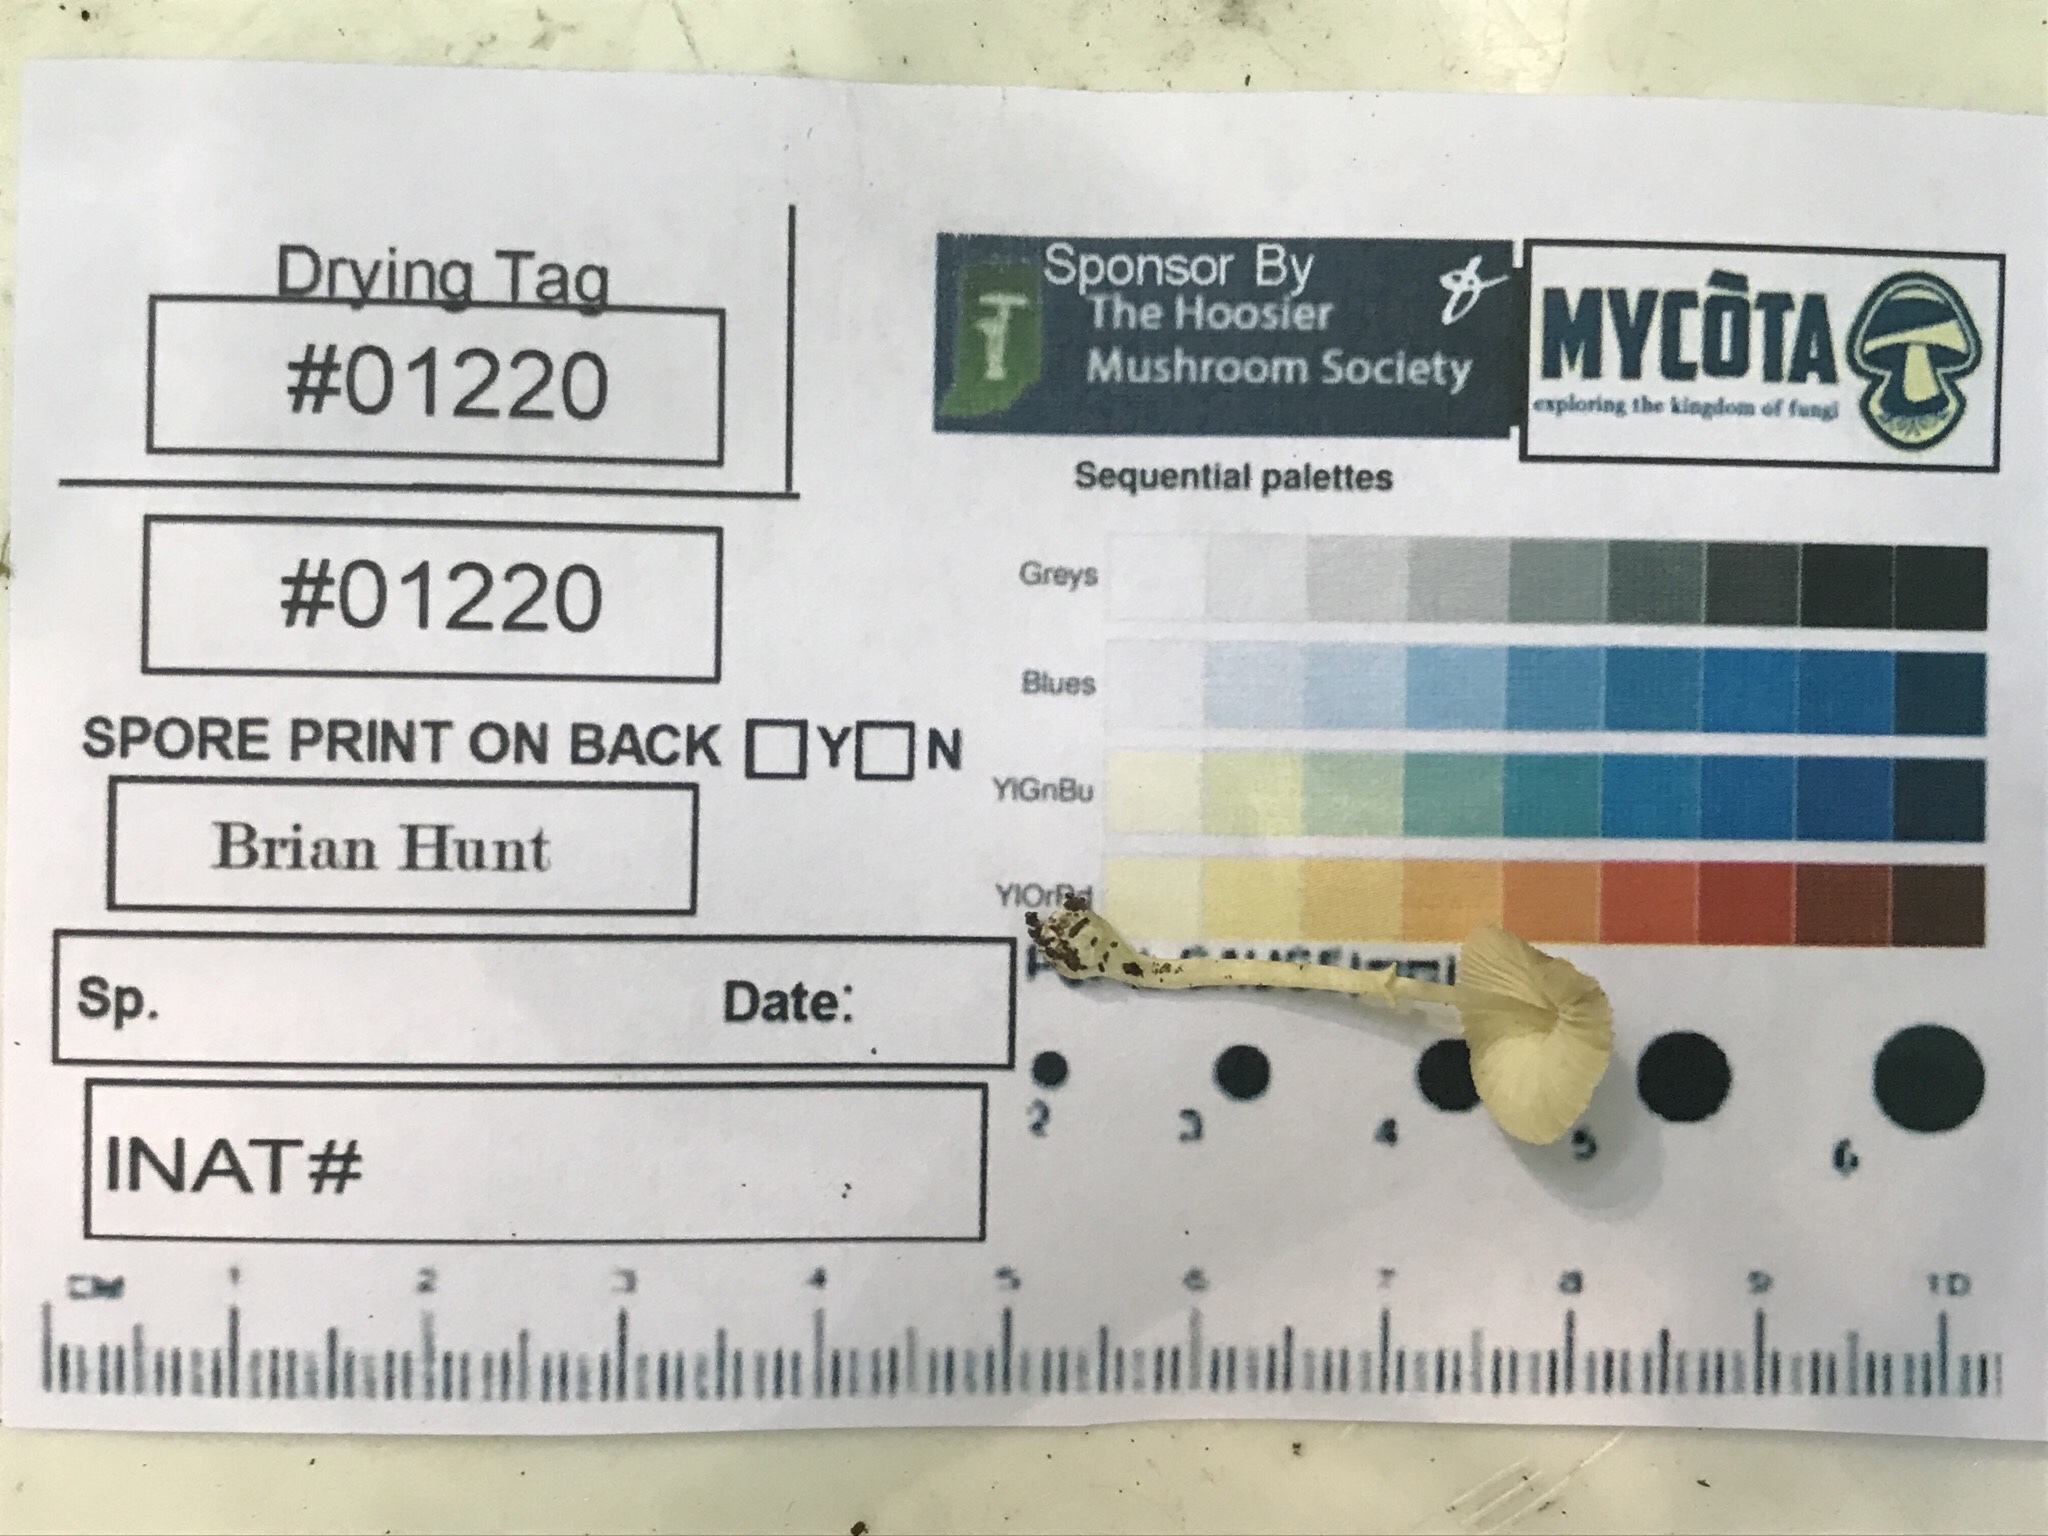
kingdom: Fungi
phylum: Basidiomycota
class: Agaricomycetes
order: Agaricales
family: Agaricaceae
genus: Leucocoprinus
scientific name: Leucocoprinus flavescens
